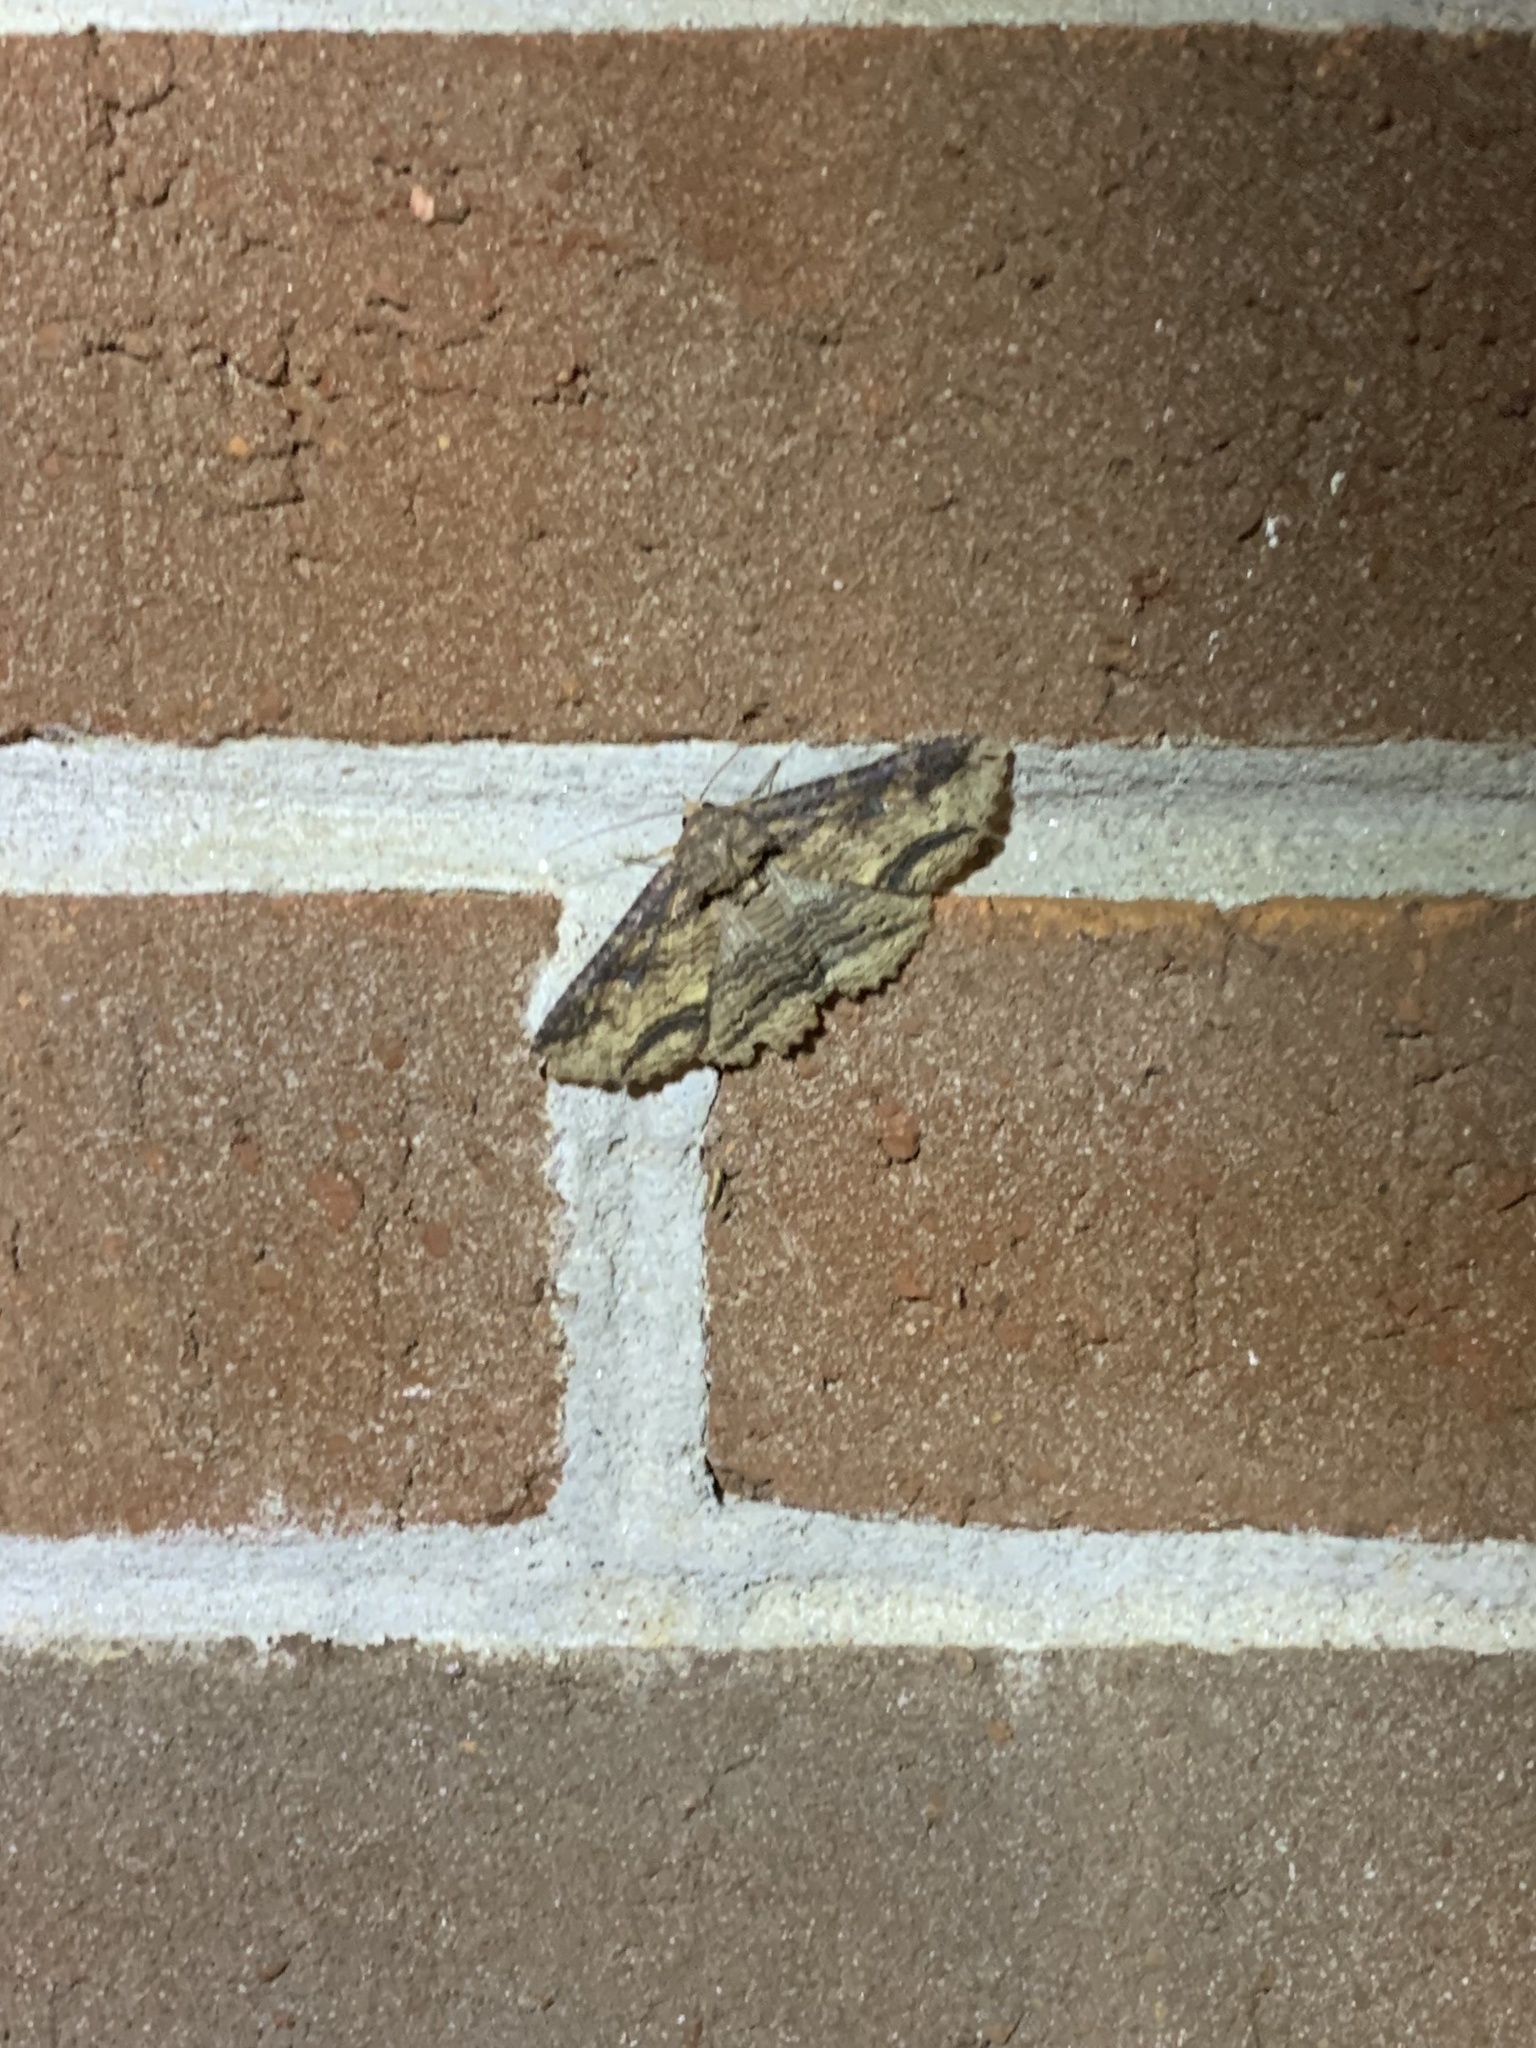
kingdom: Animalia
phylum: Arthropoda
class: Insecta
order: Lepidoptera
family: Erebidae
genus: Zale
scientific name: Zale lunata
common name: Lunate zale moth
